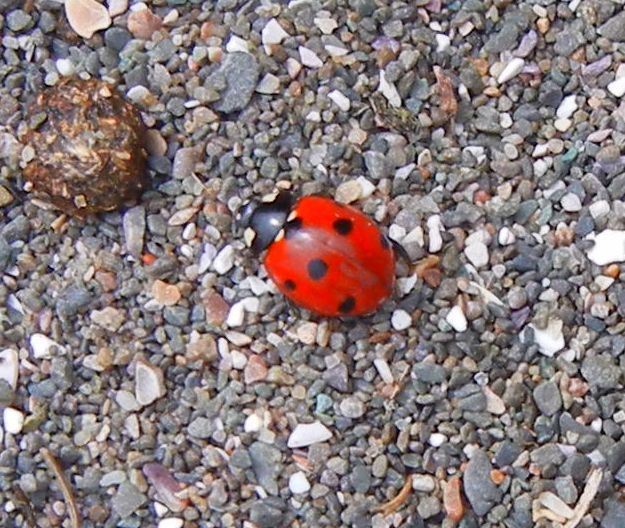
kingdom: Animalia
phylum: Arthropoda
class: Insecta
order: Coleoptera
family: Coccinellidae
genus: Coccinella
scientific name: Coccinella septempunctata
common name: Sevenspotted lady beetle
